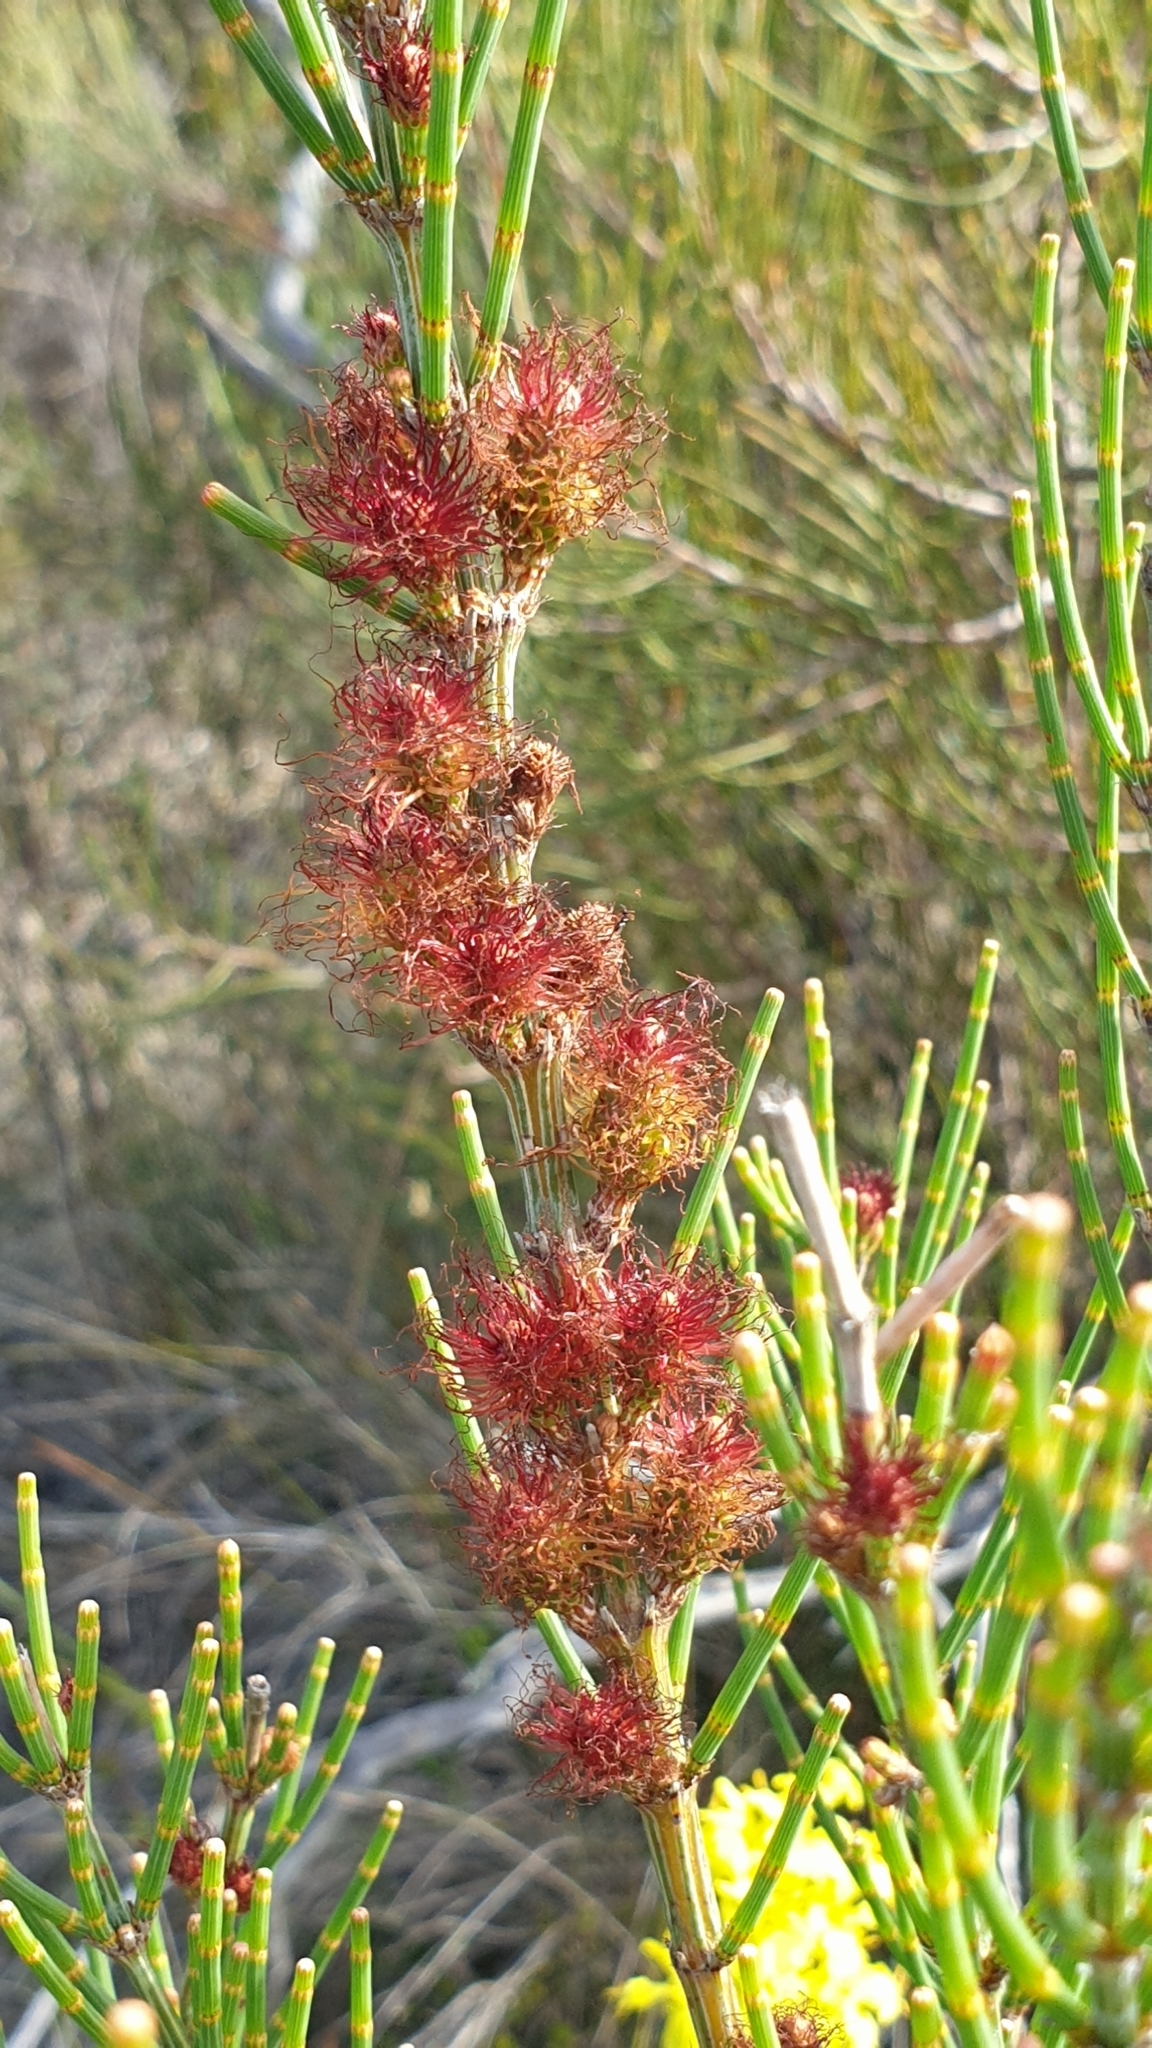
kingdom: Plantae
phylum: Tracheophyta
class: Magnoliopsida
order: Fagales
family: Casuarinaceae
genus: Allocasuarina
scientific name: Allocasuarina pusilla
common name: Dwarf she-oak
